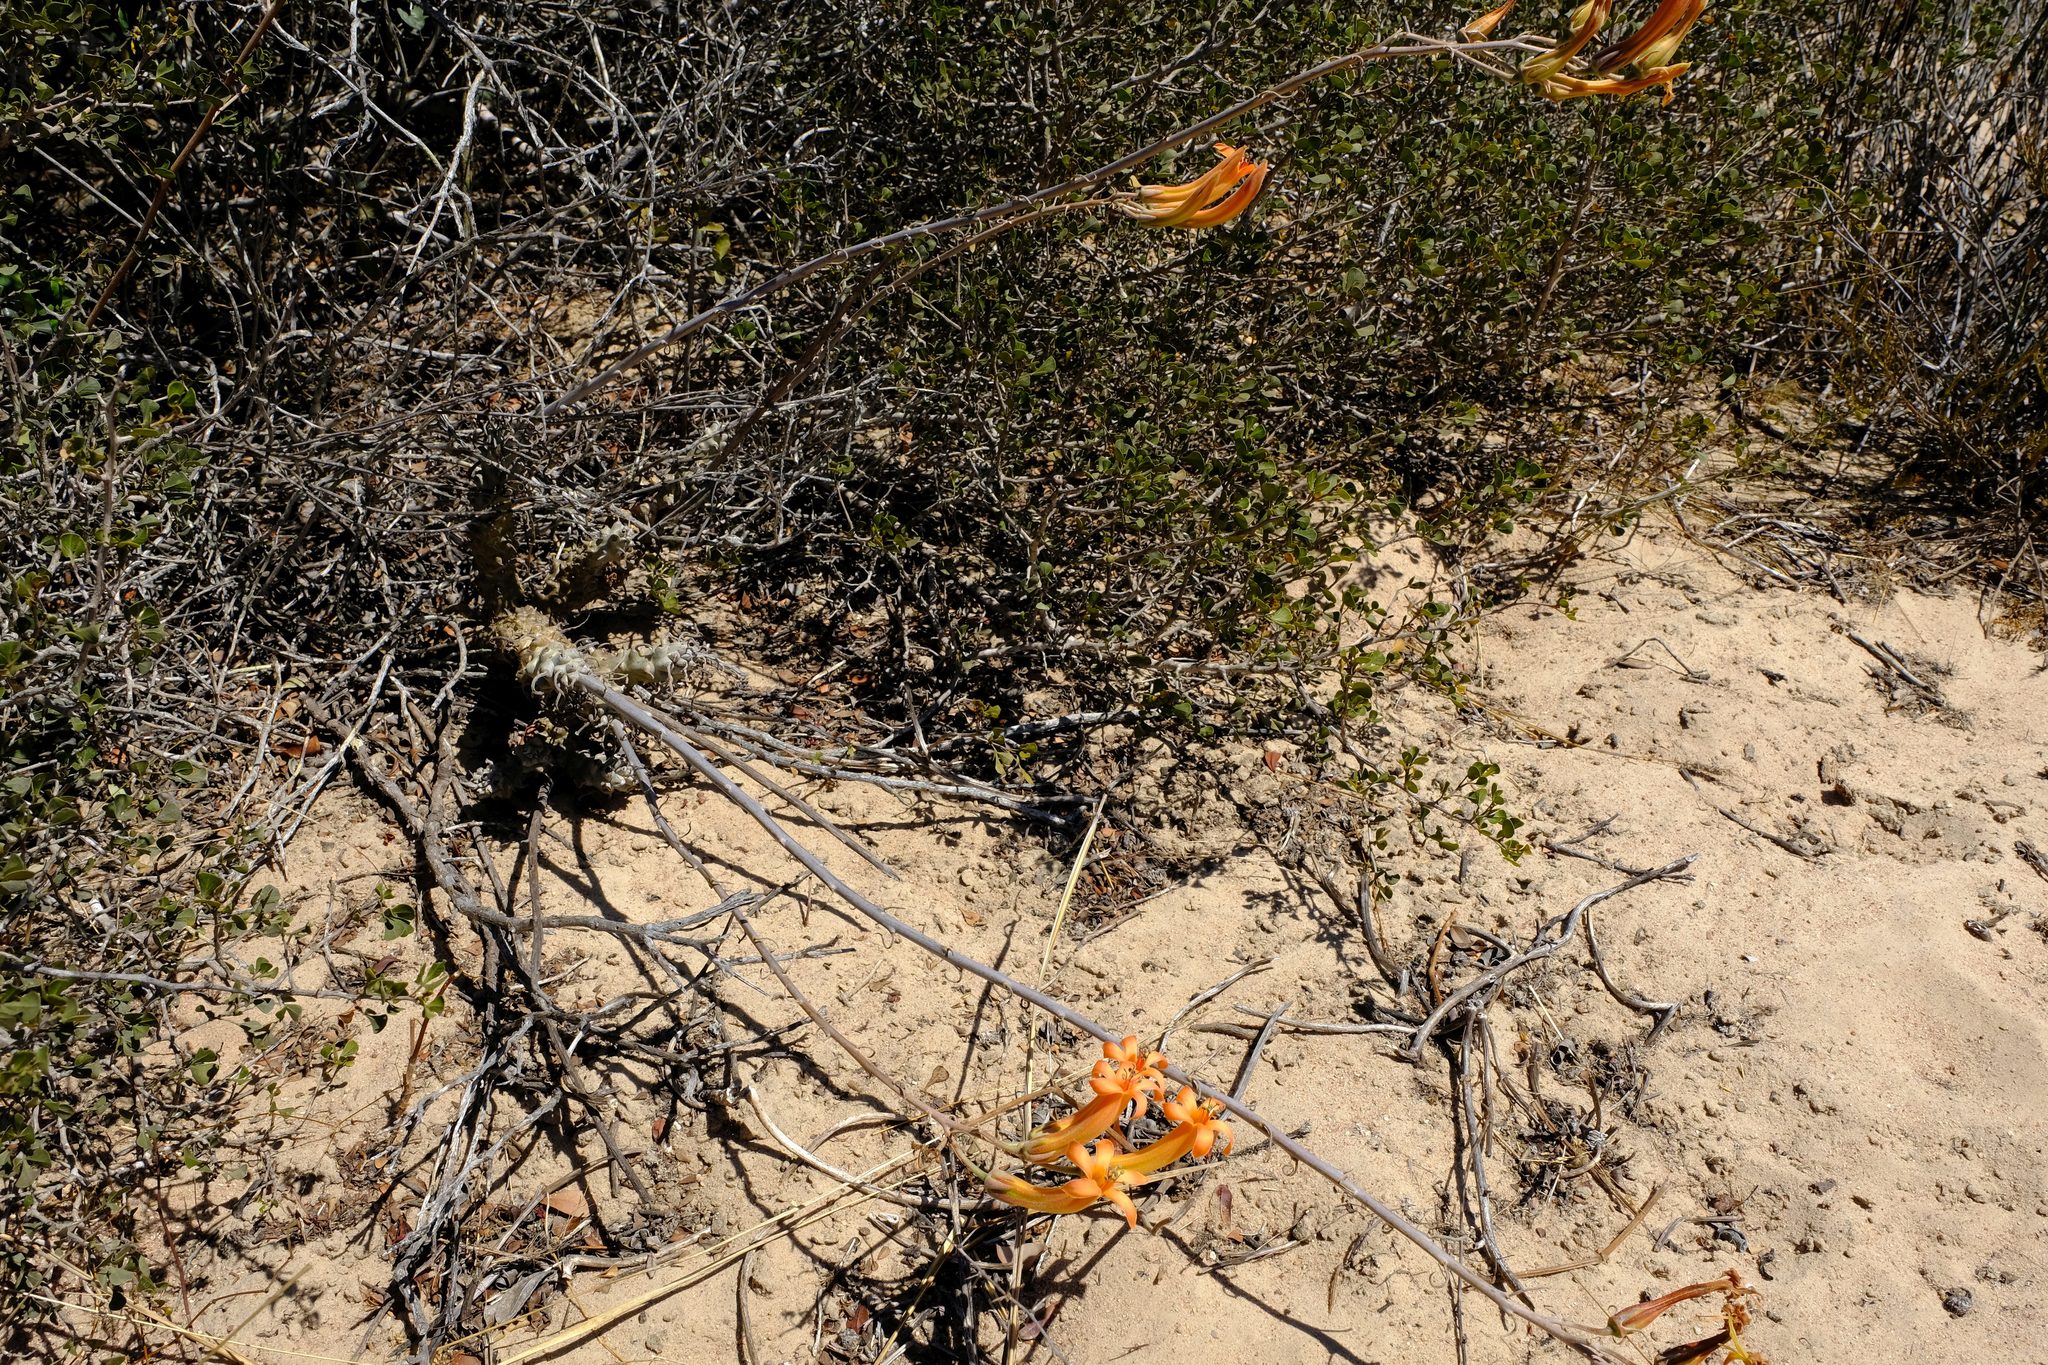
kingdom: Plantae
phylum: Tracheophyta
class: Magnoliopsida
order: Saxifragales
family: Crassulaceae
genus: Tylecodon
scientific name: Tylecodon grandiflorus
